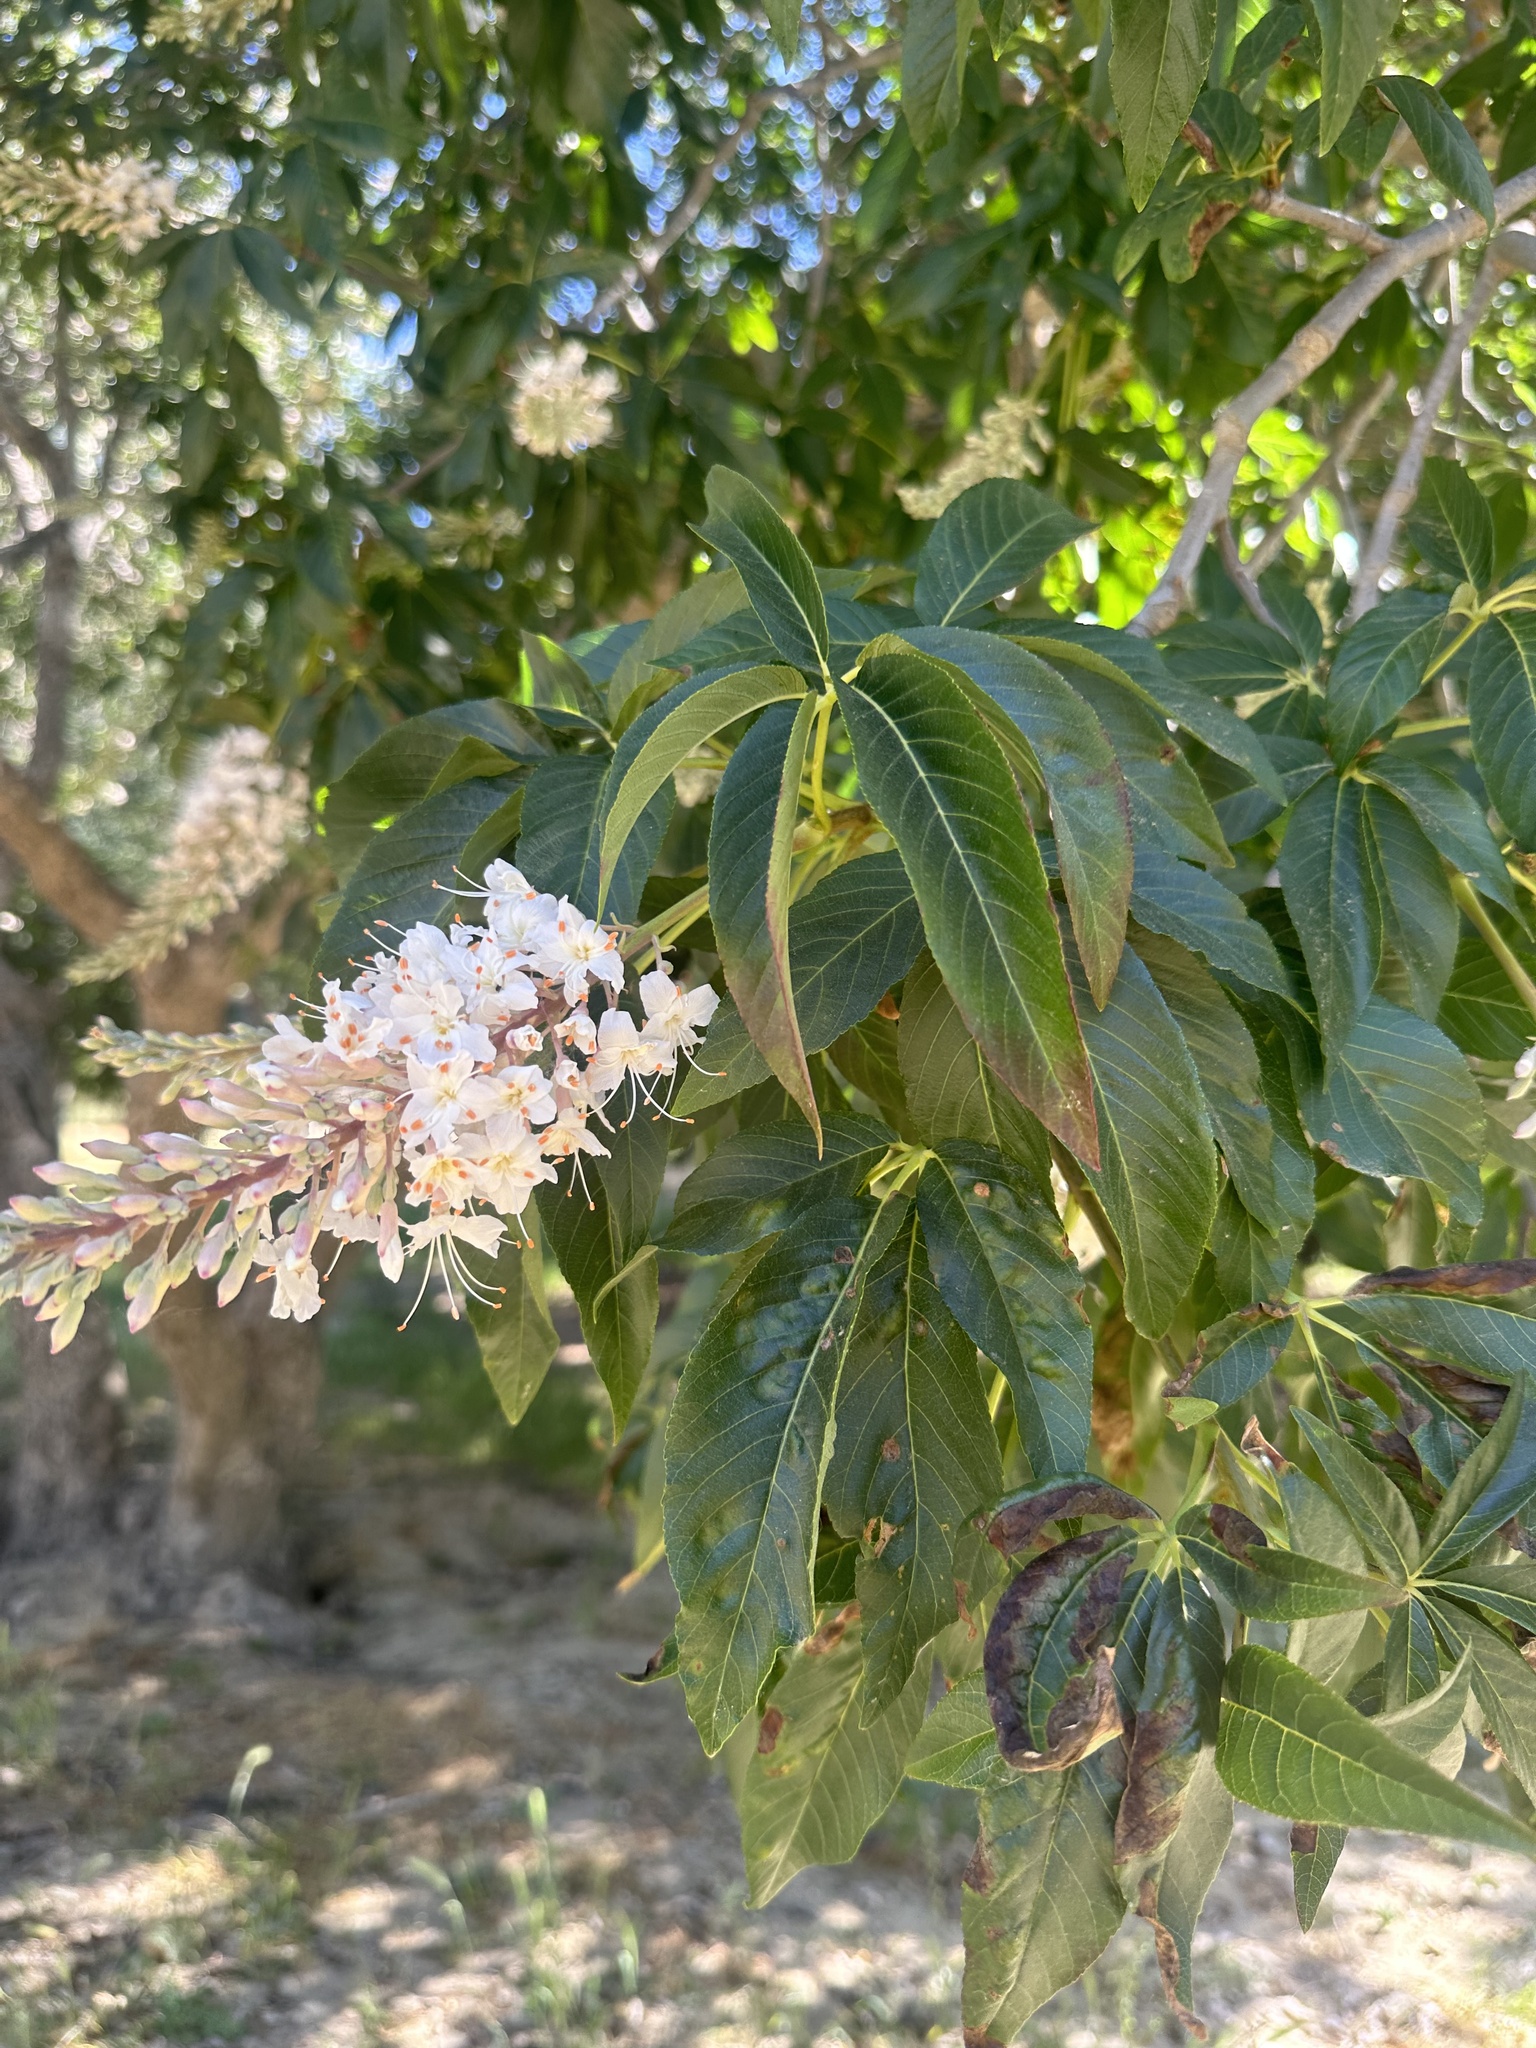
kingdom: Plantae
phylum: Tracheophyta
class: Magnoliopsida
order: Sapindales
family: Sapindaceae
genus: Aesculus
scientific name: Aesculus californica
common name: California buckeye
